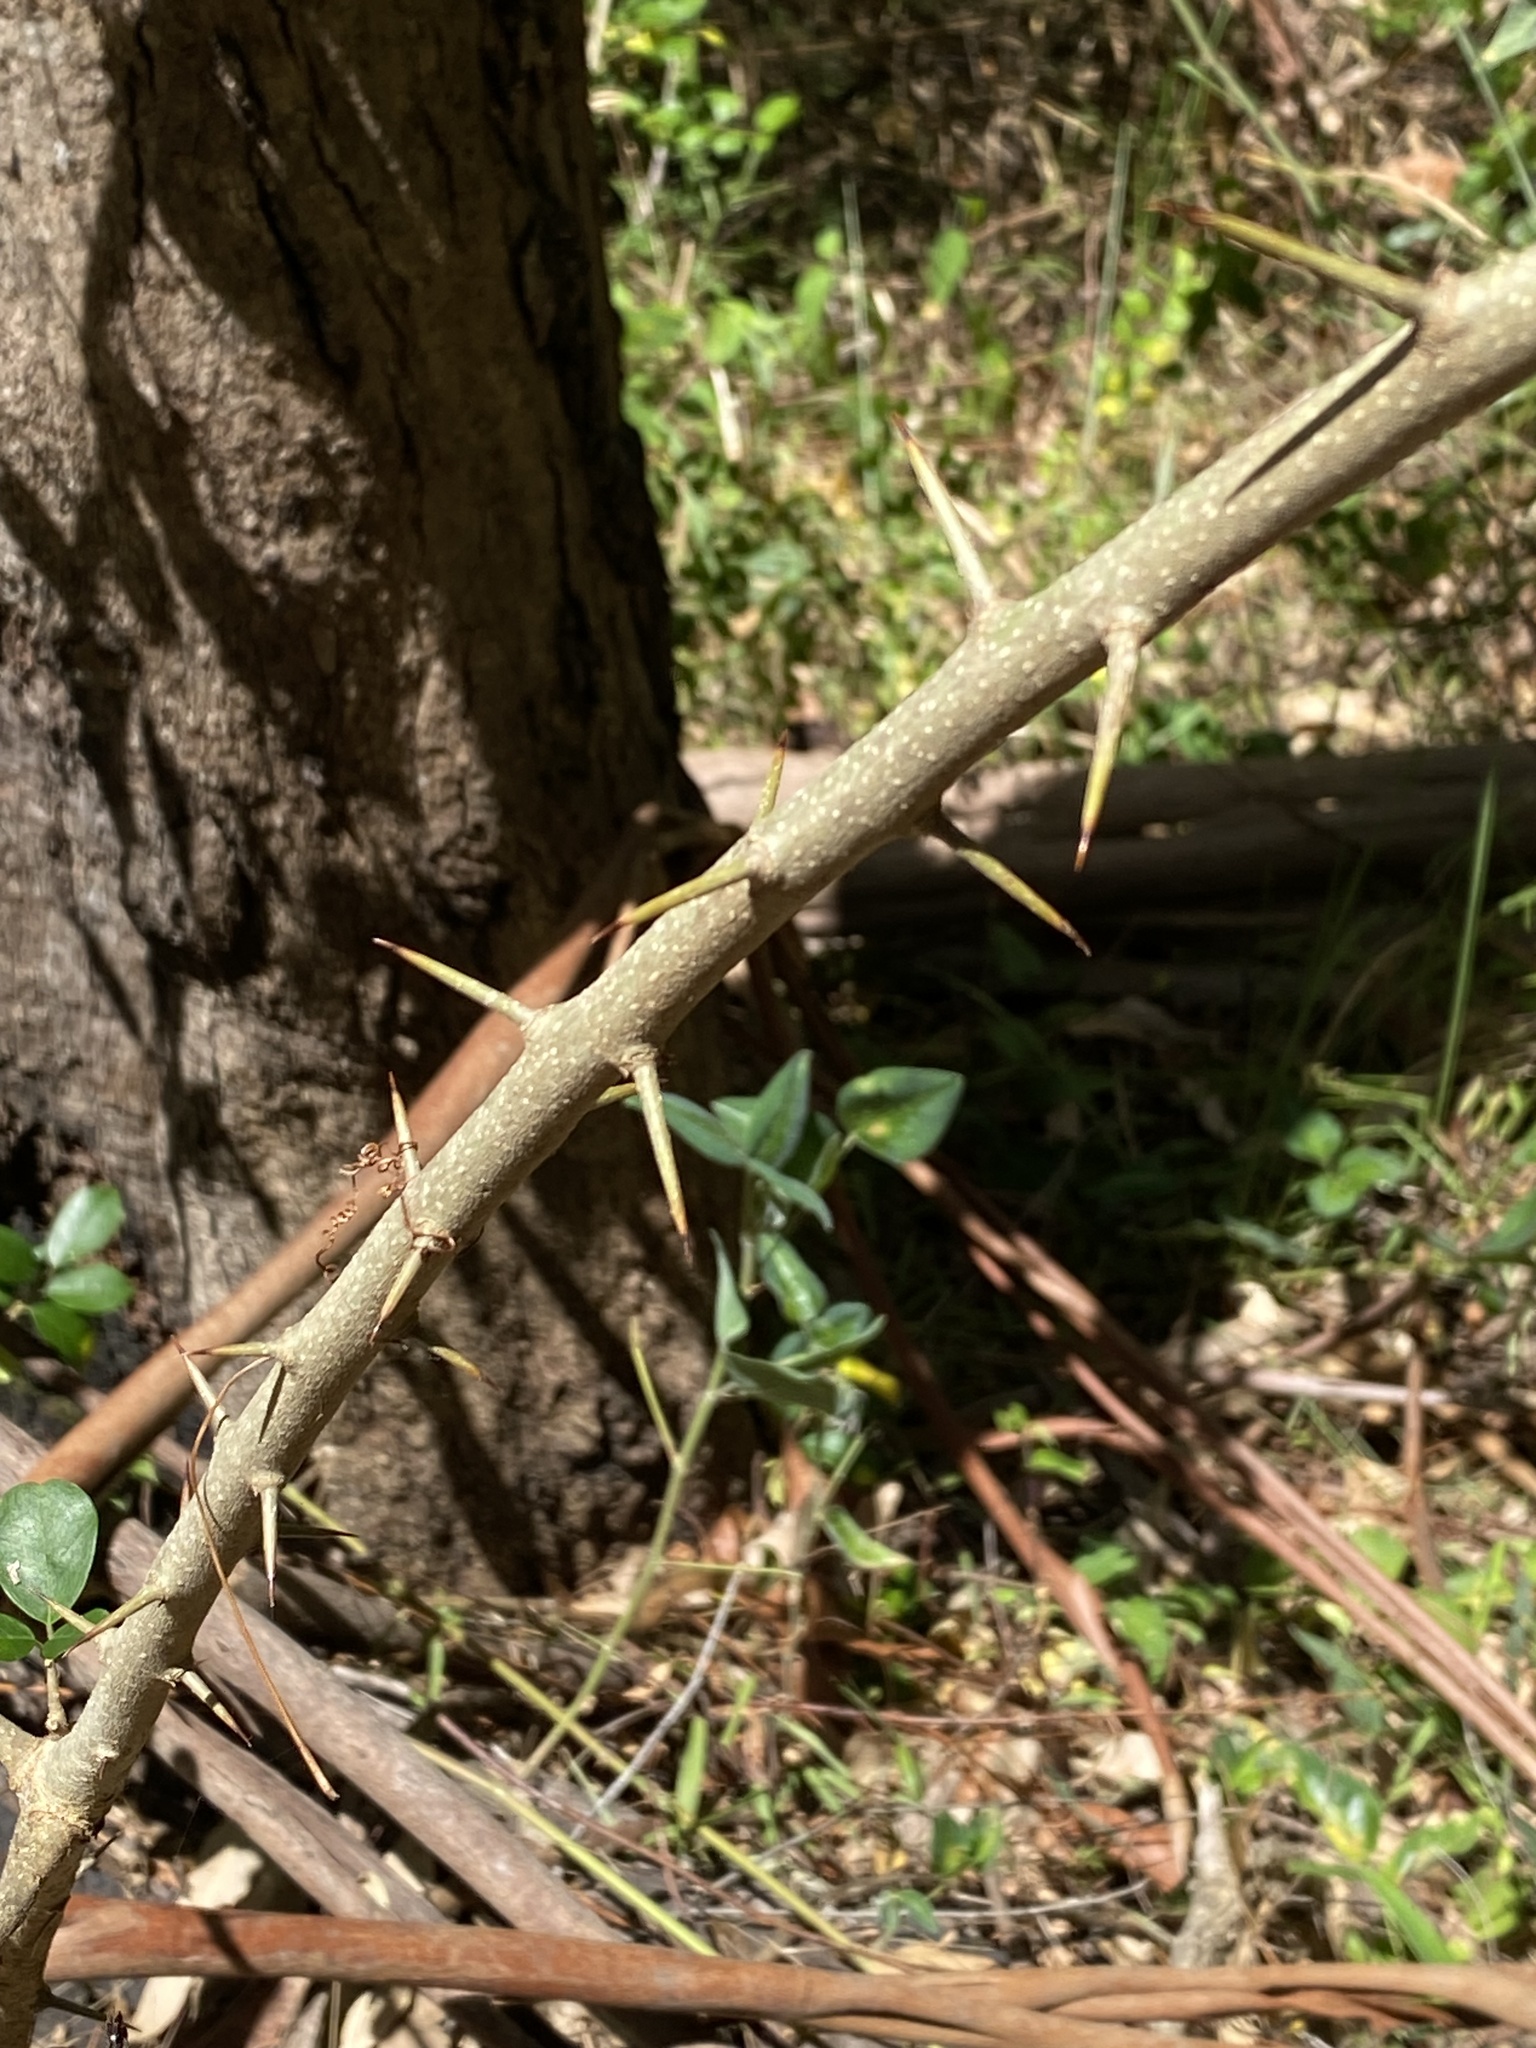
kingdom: Plantae
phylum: Tracheophyta
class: Magnoliopsida
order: Rosales
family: Moraceae
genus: Maclura
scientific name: Maclura cochinchinensis
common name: Cockspurthorn
